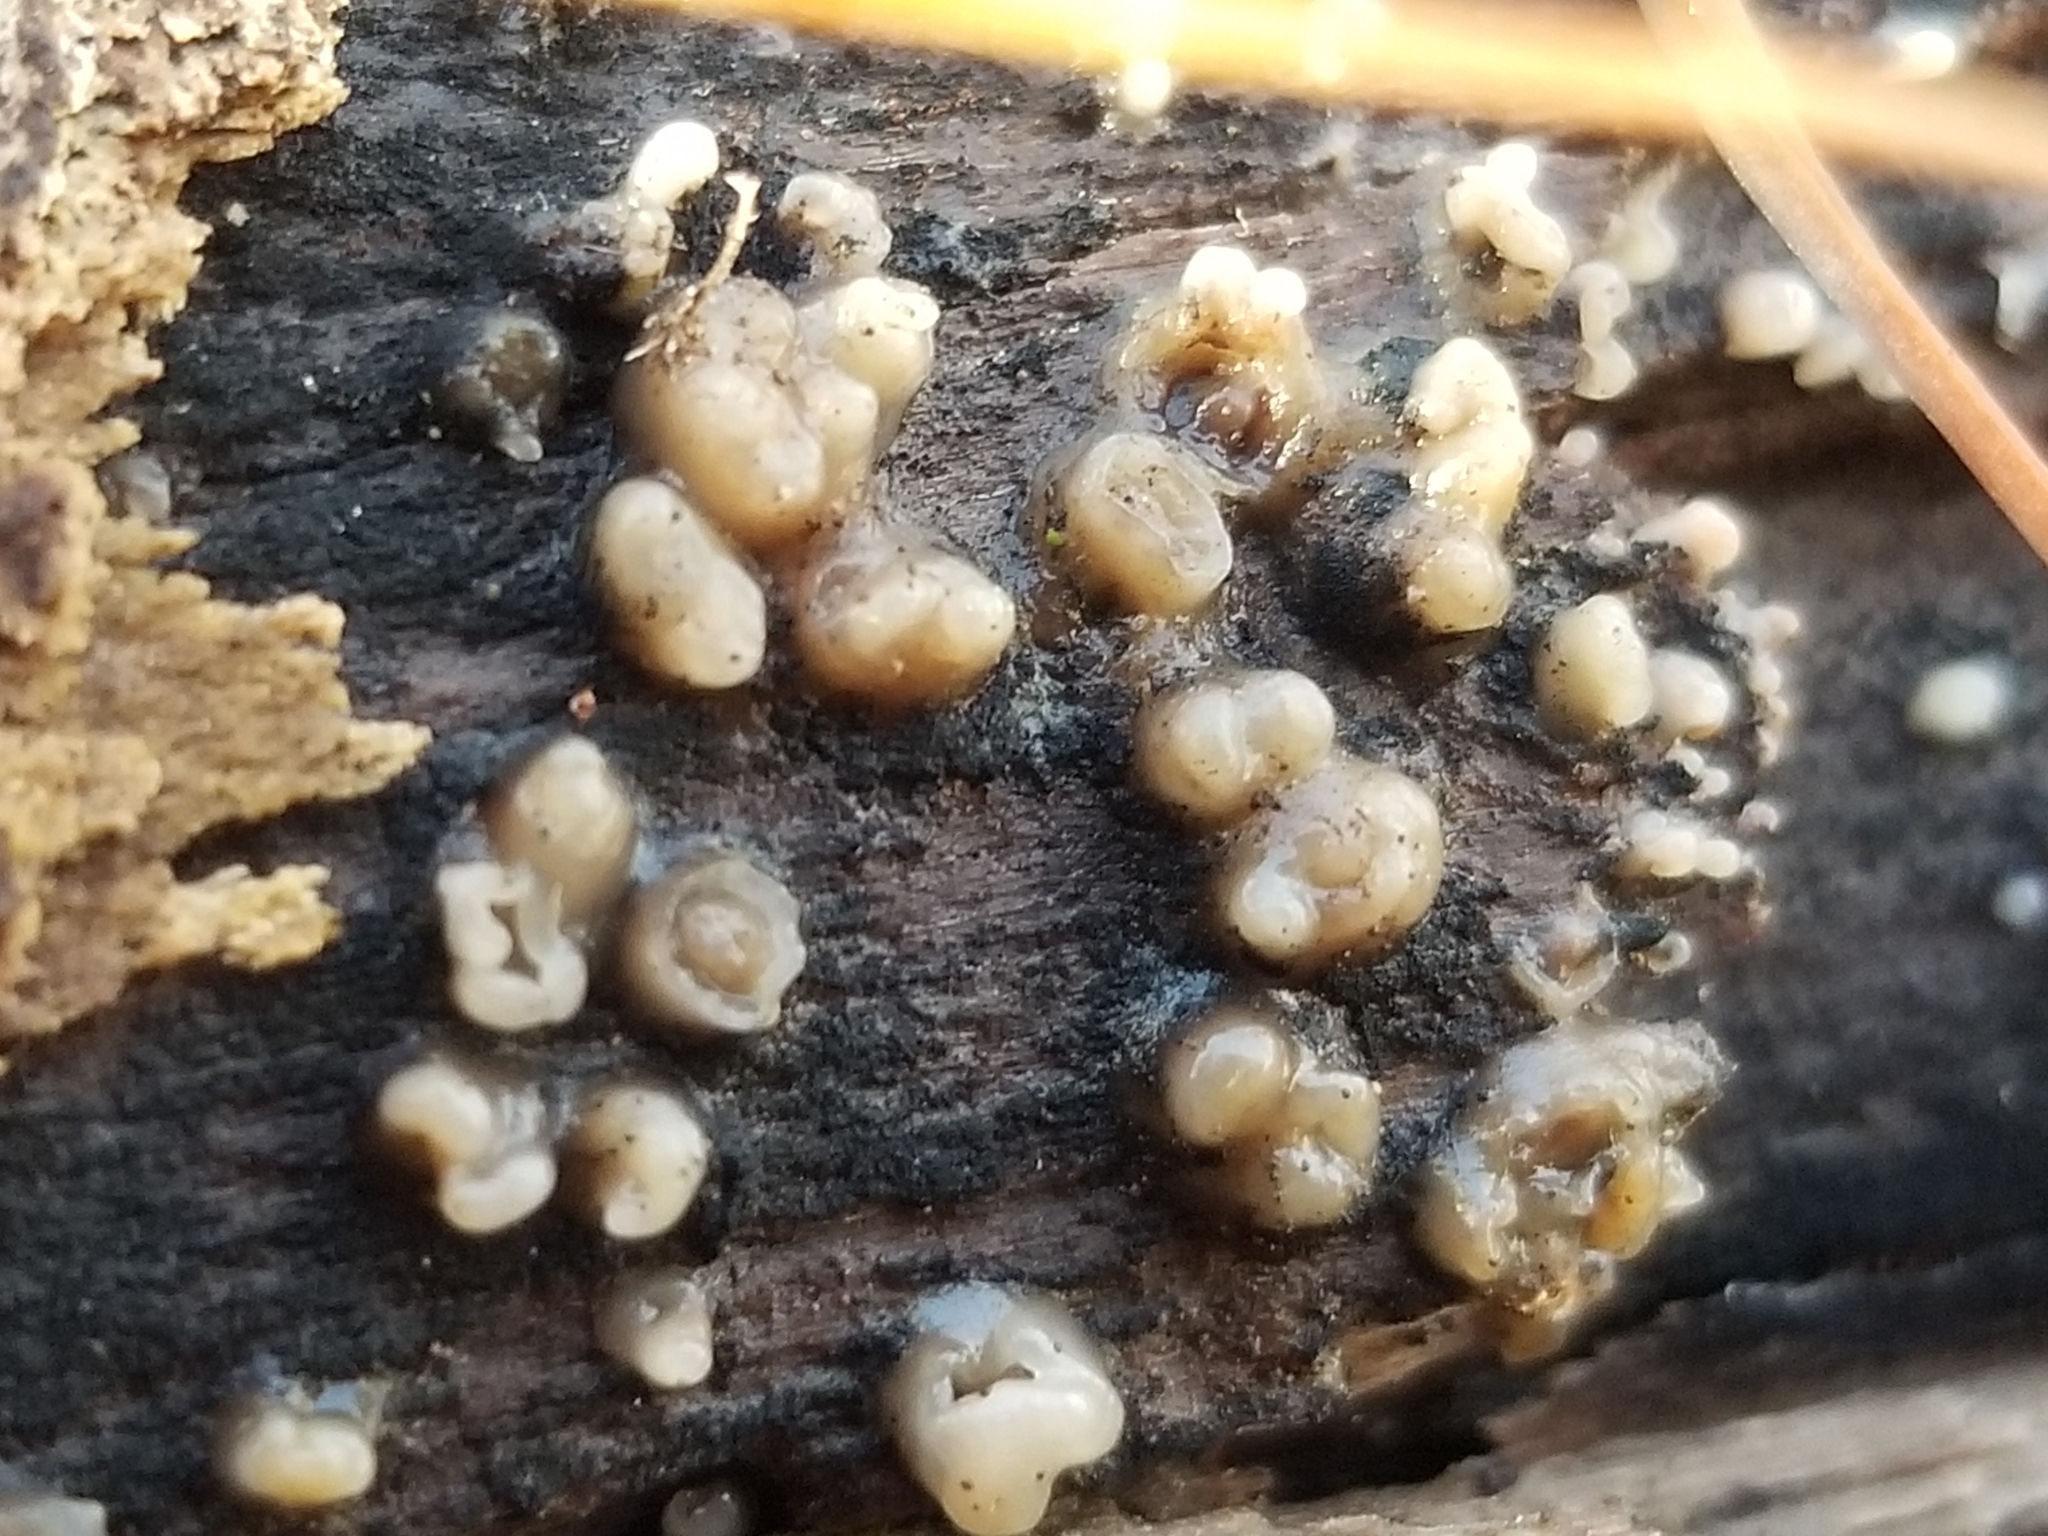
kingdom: Fungi
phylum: Basidiomycota
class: Atractiellomycetes
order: Atractiellales
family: Phleogenaceae
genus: Helicogloea
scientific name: Helicogloea compressa
